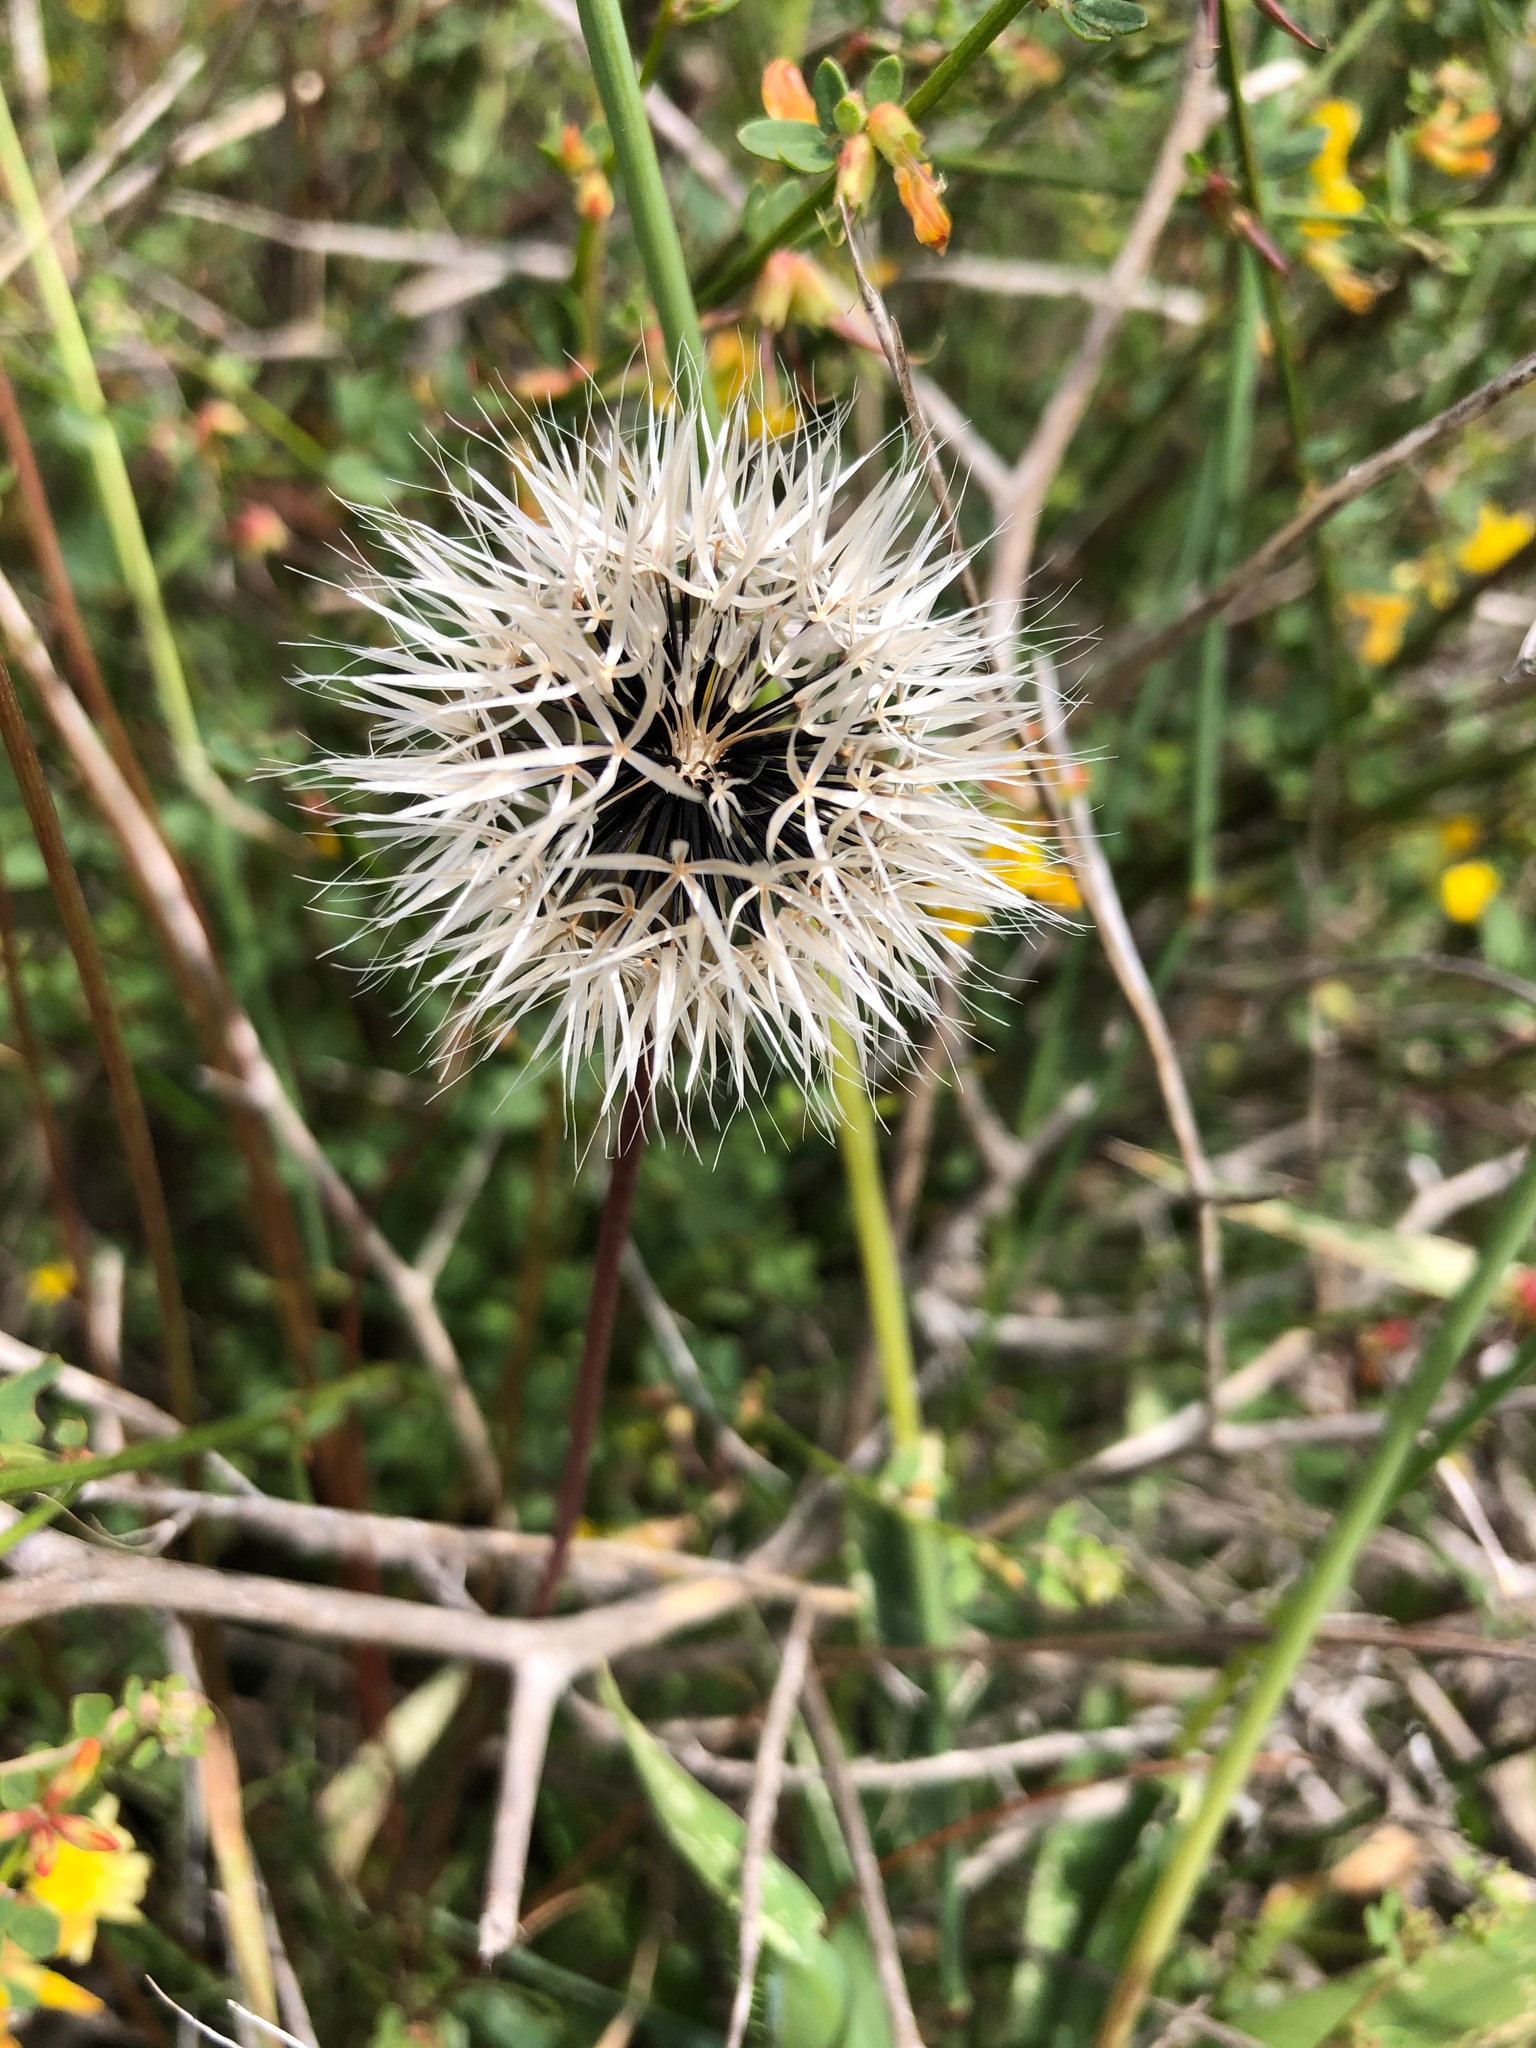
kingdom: Plantae
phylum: Tracheophyta
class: Magnoliopsida
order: Asterales
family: Asteraceae
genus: Microseris
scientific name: Microseris lindleyi
